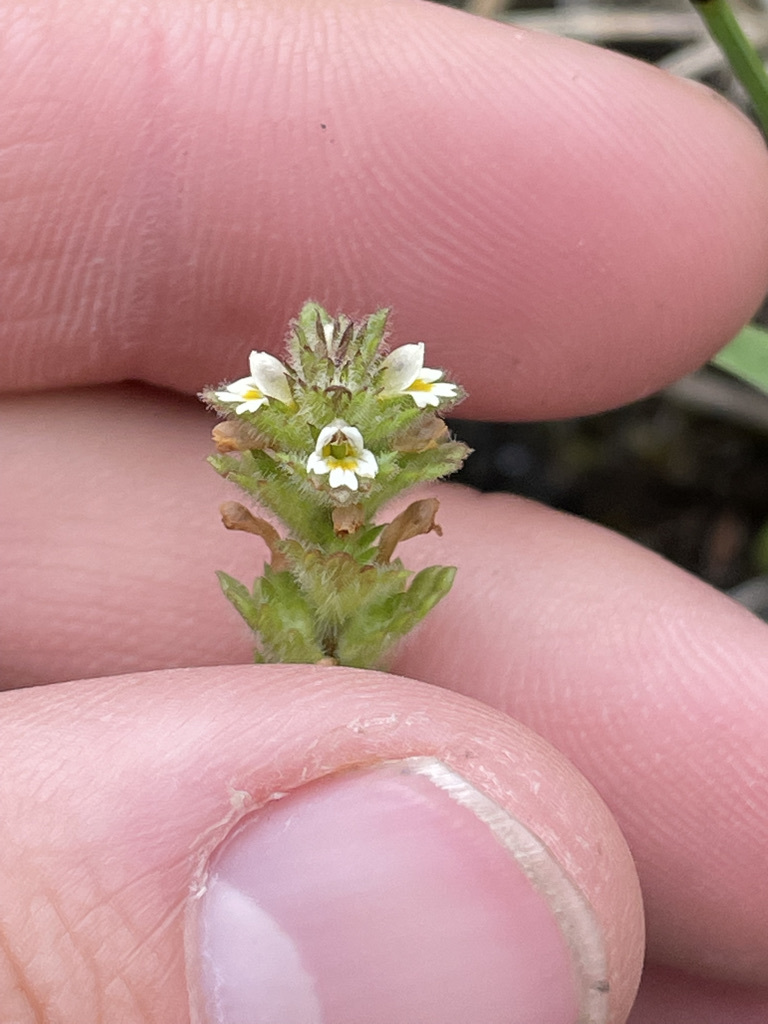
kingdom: Plantae
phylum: Tracheophyta
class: Magnoliopsida
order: Lamiales
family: Orobanchaceae
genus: Euphrasia
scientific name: Euphrasia subarctica
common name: Subarctic eyebright
